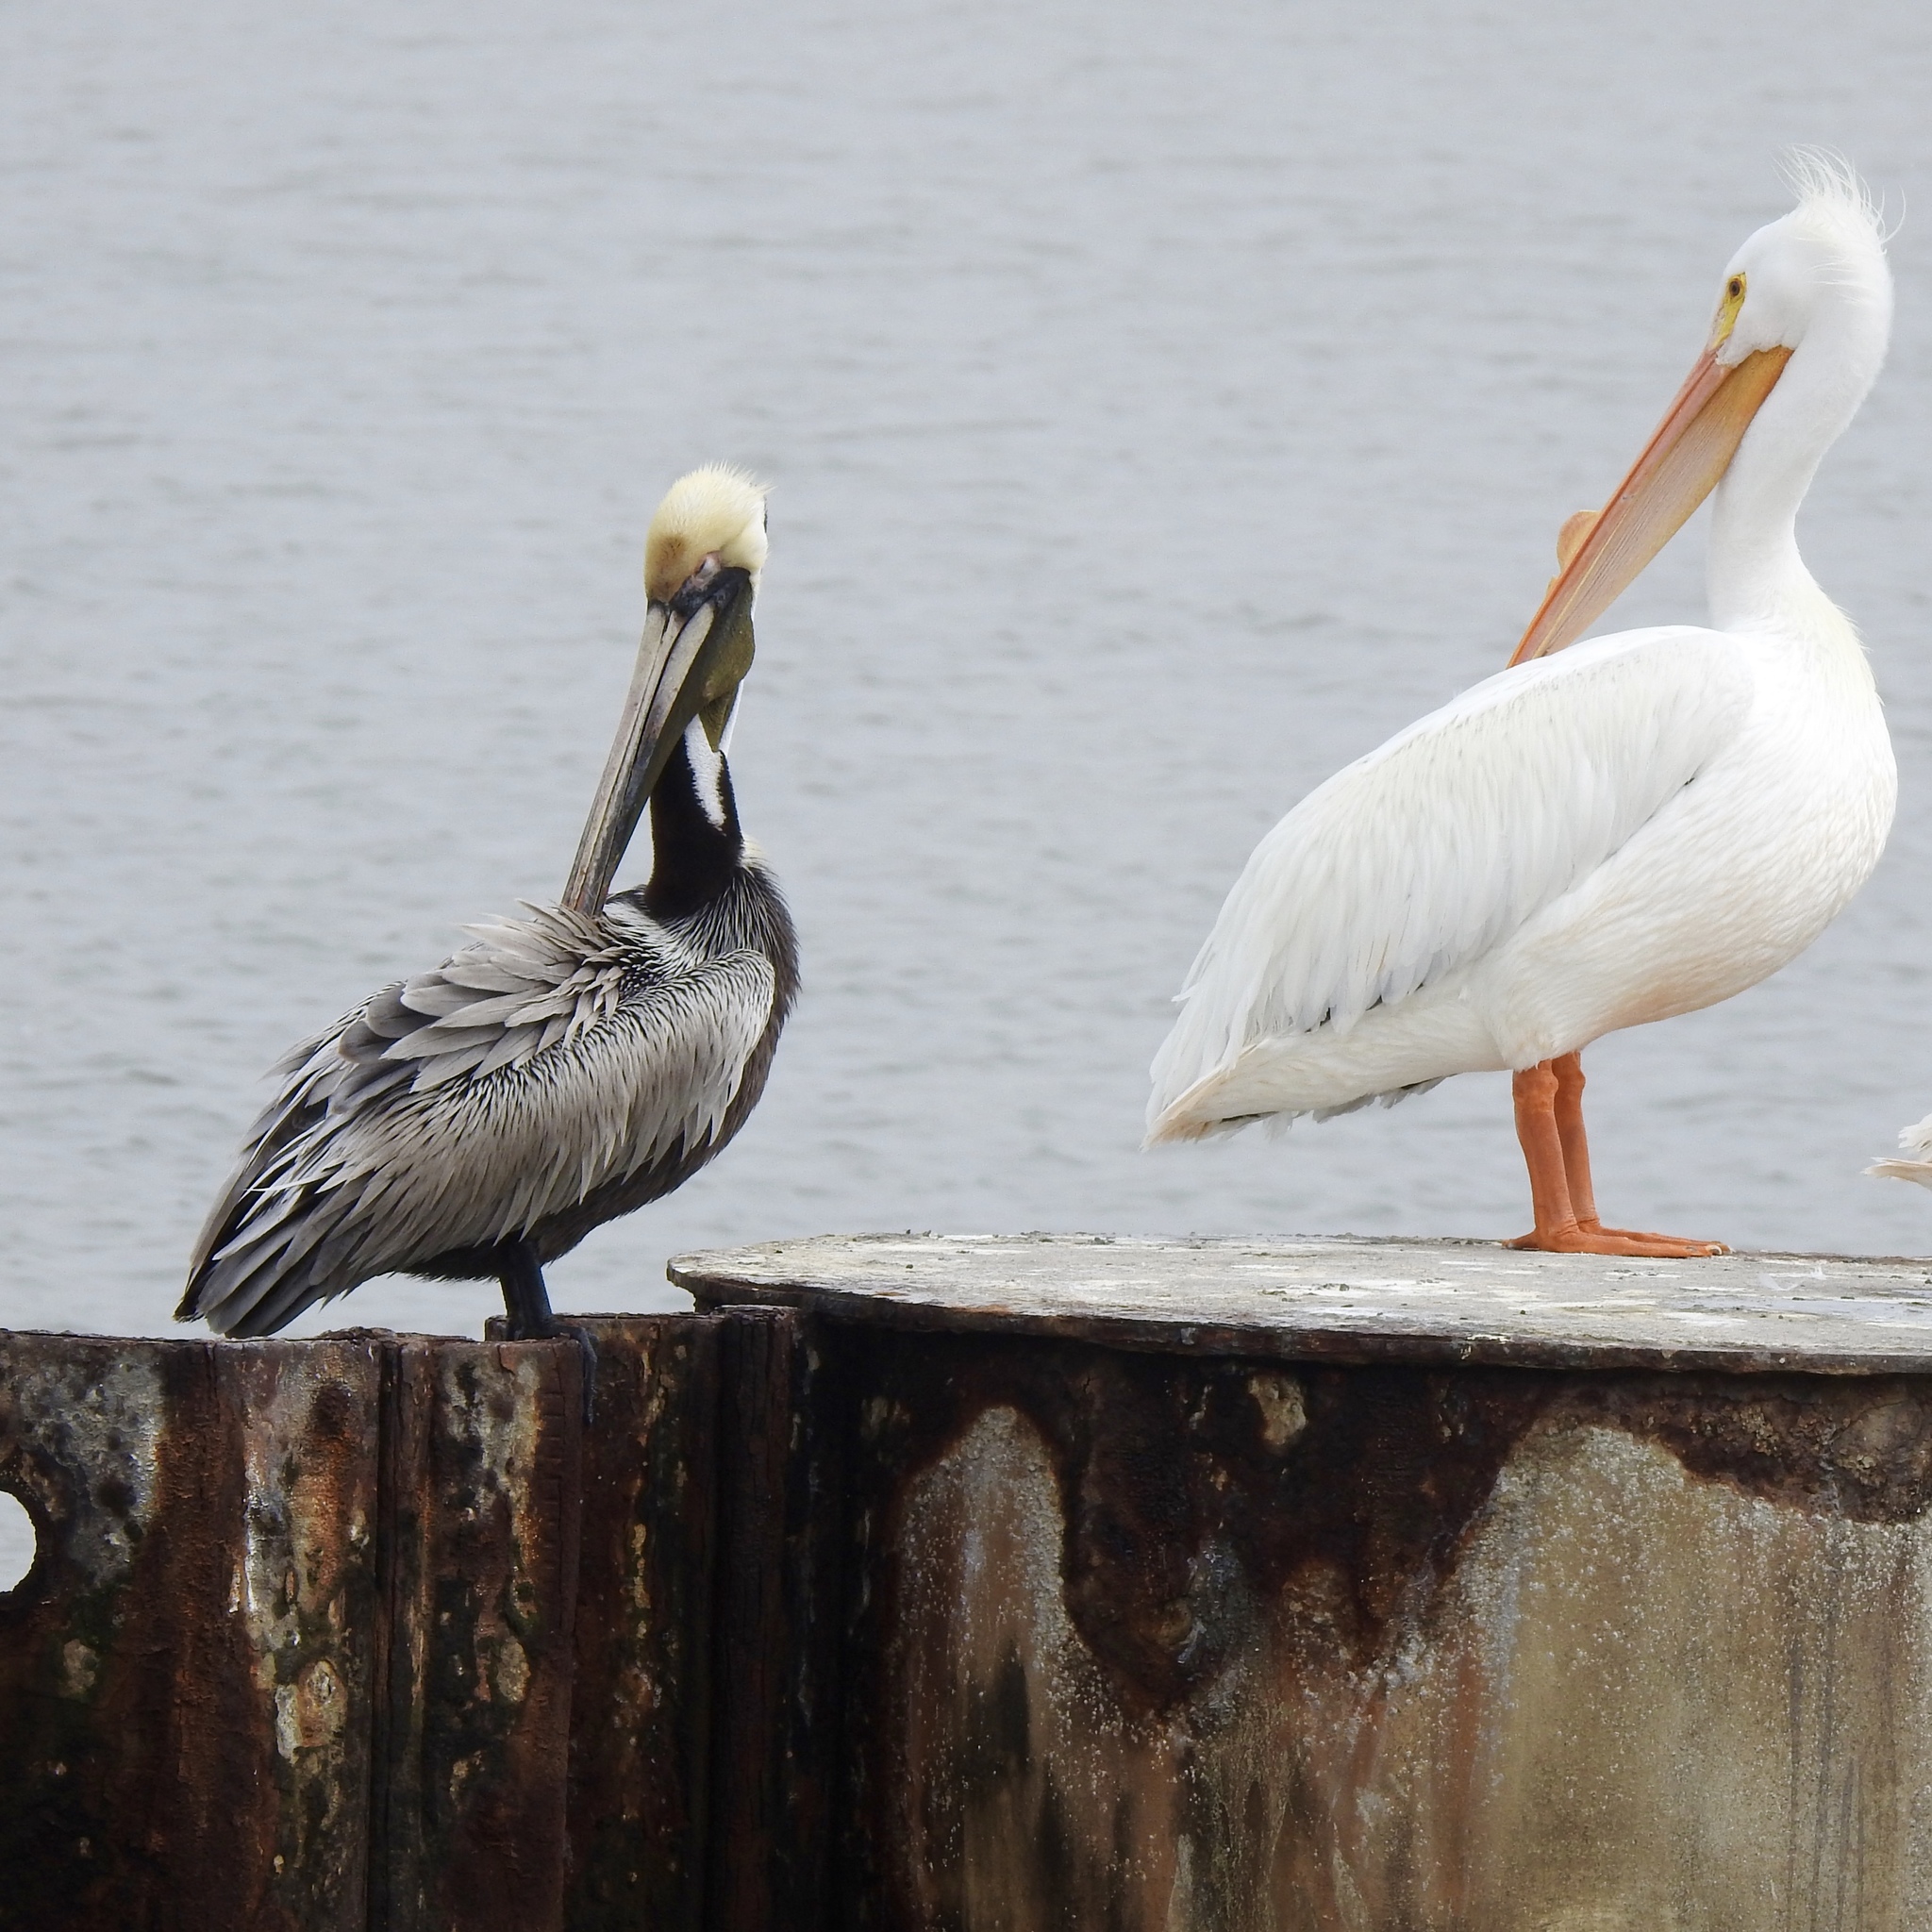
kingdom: Animalia
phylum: Chordata
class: Aves
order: Pelecaniformes
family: Pelecanidae
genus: Pelecanus
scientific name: Pelecanus occidentalis
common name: Brown pelican
